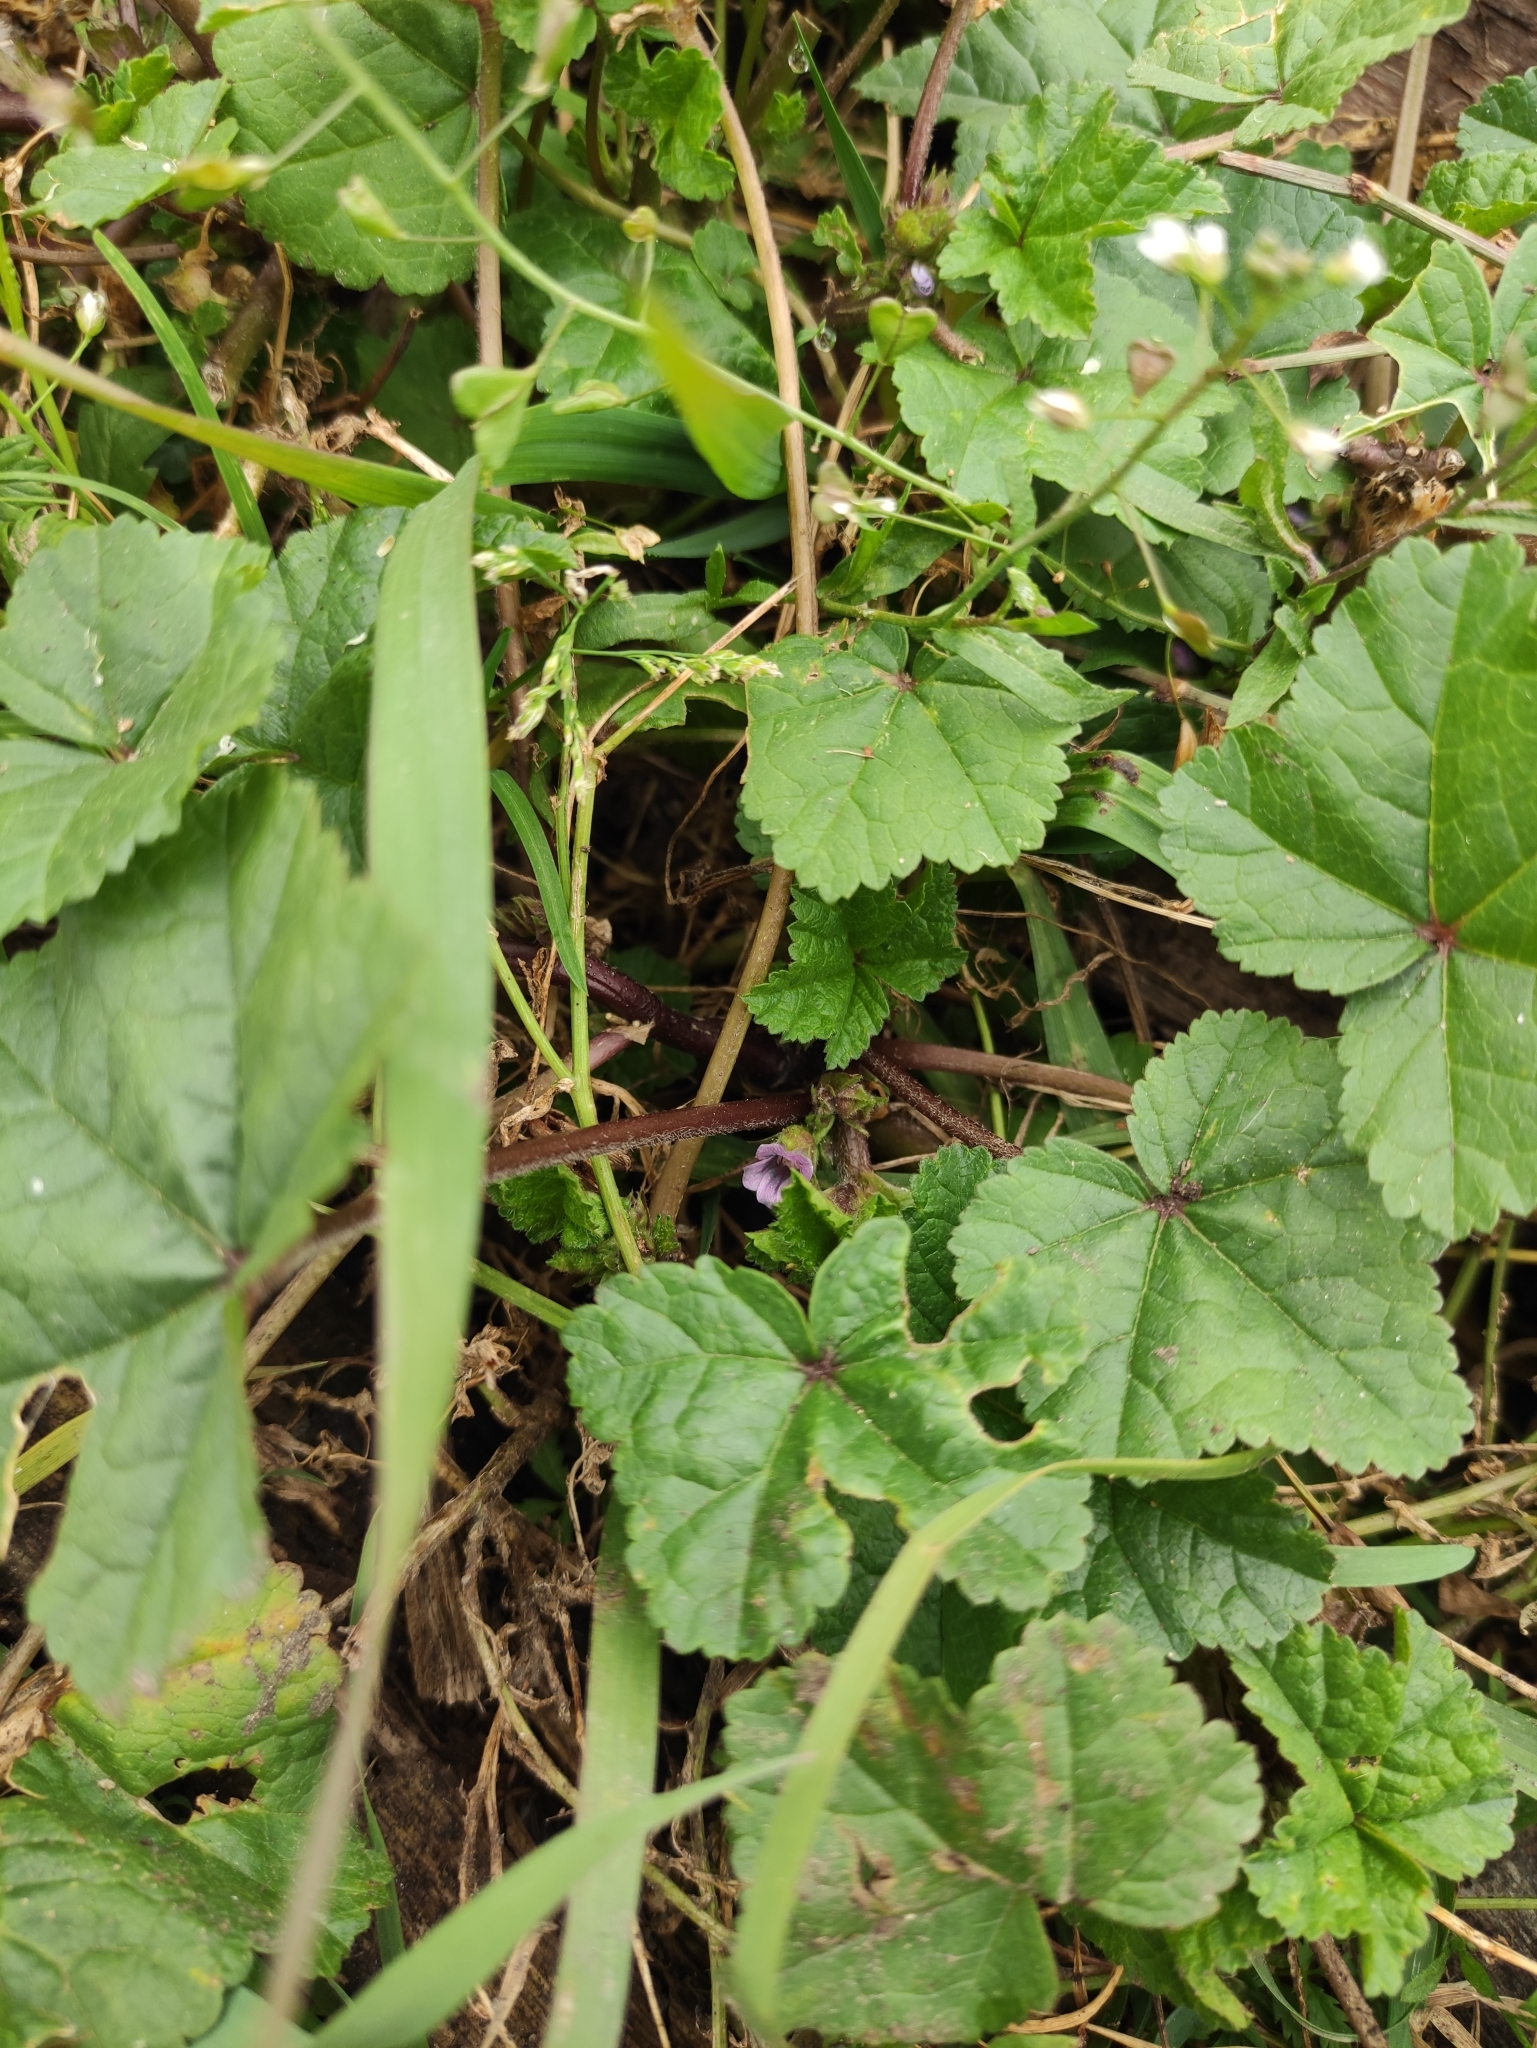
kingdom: Plantae
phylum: Tracheophyta
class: Magnoliopsida
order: Malvales
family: Malvaceae
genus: Malva
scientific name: Malva verticillata
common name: Chinese mallow
